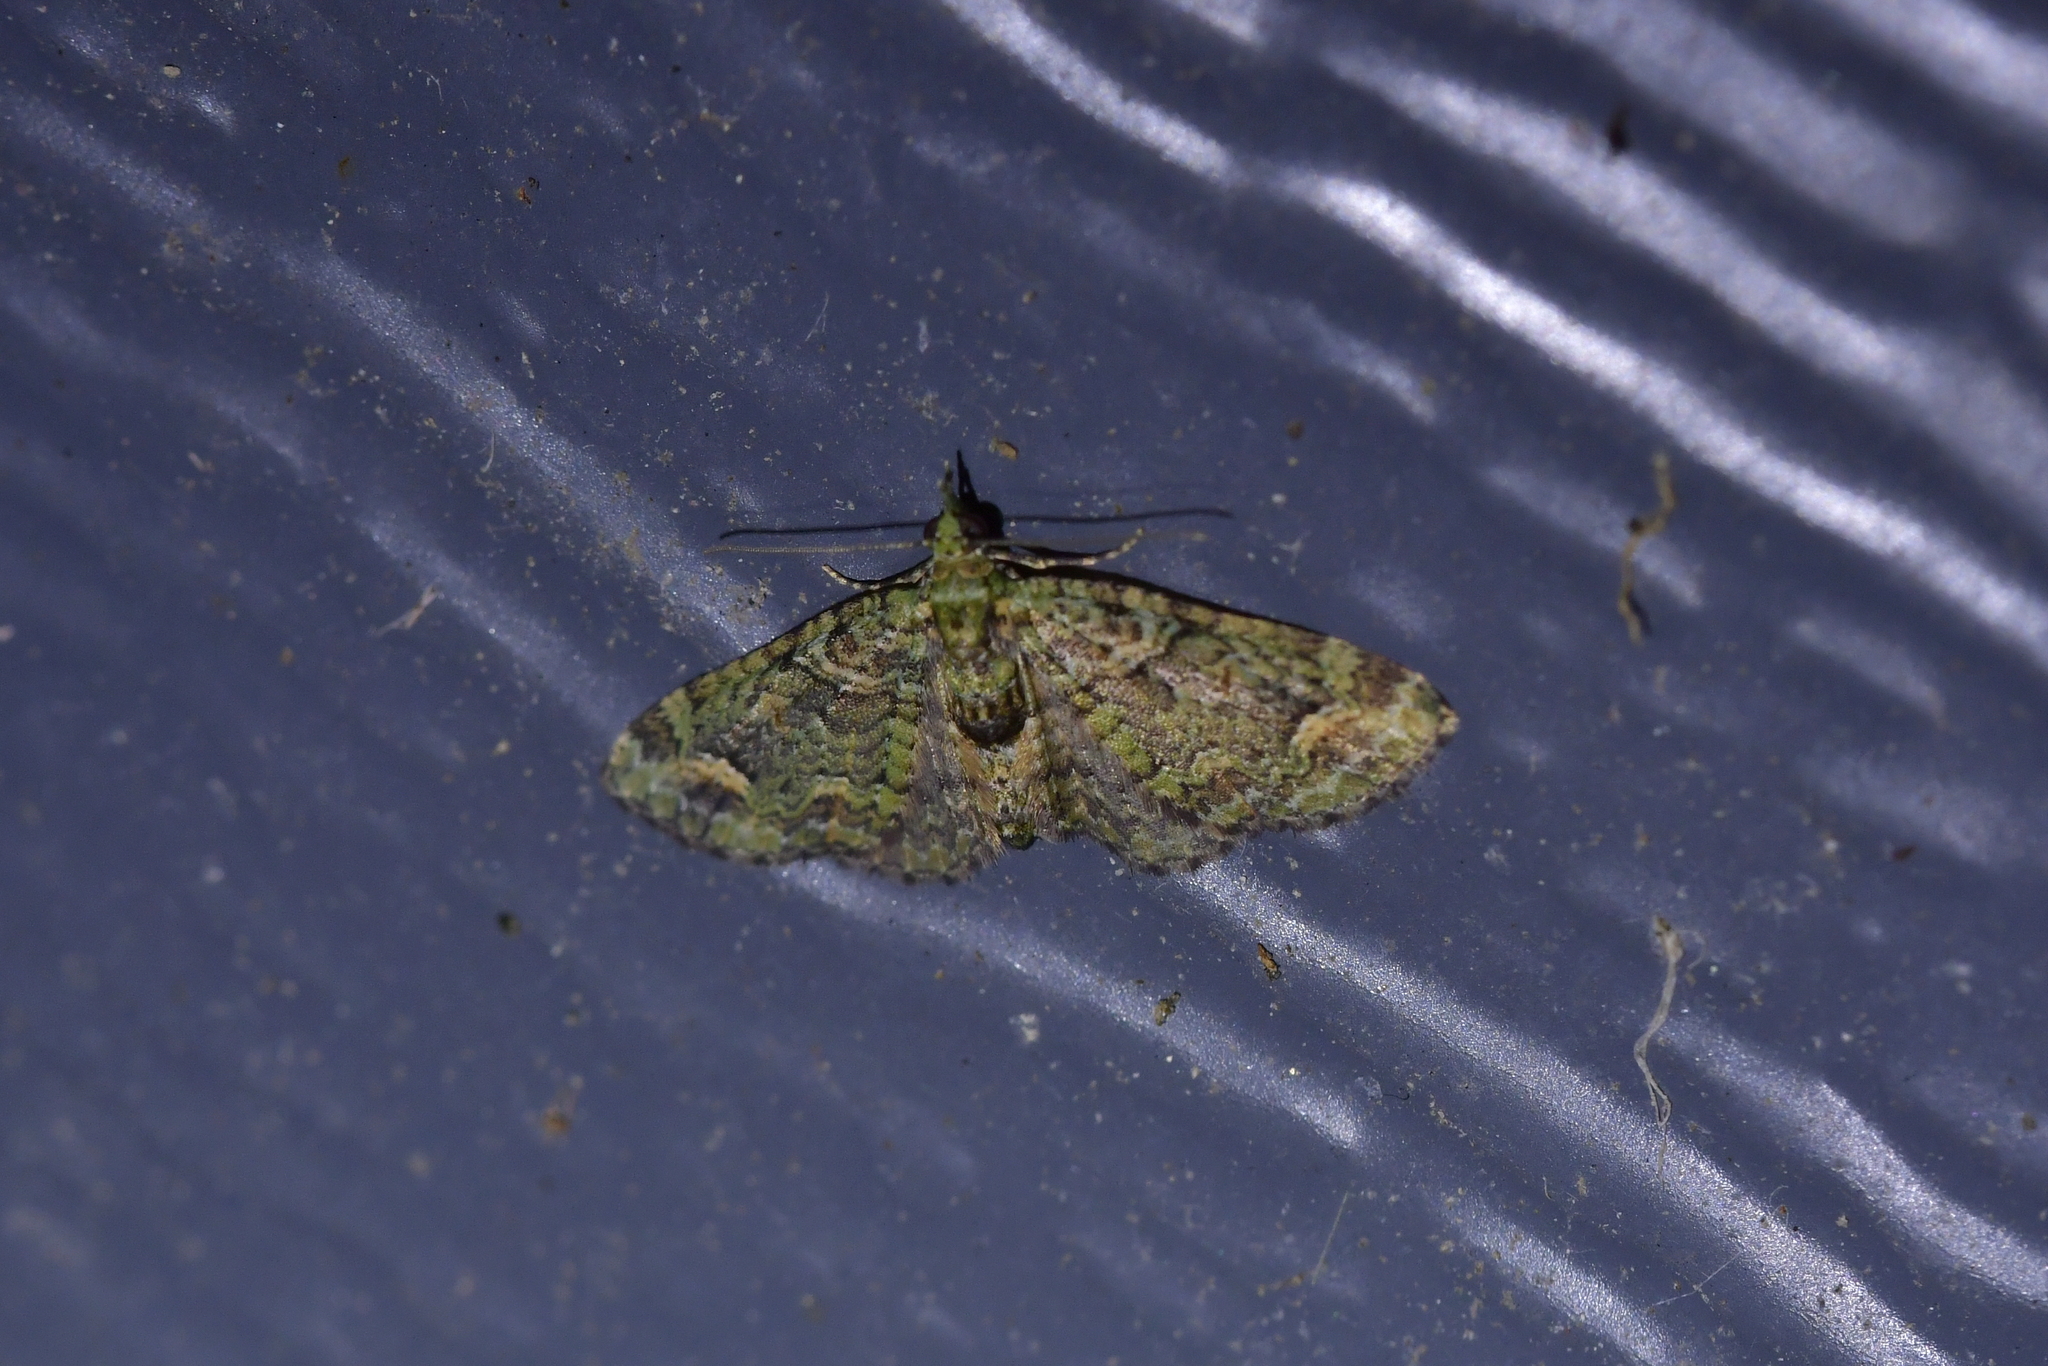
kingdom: Animalia
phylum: Arthropoda
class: Insecta
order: Lepidoptera
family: Geometridae
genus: Idaea
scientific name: Idaea mutanda
